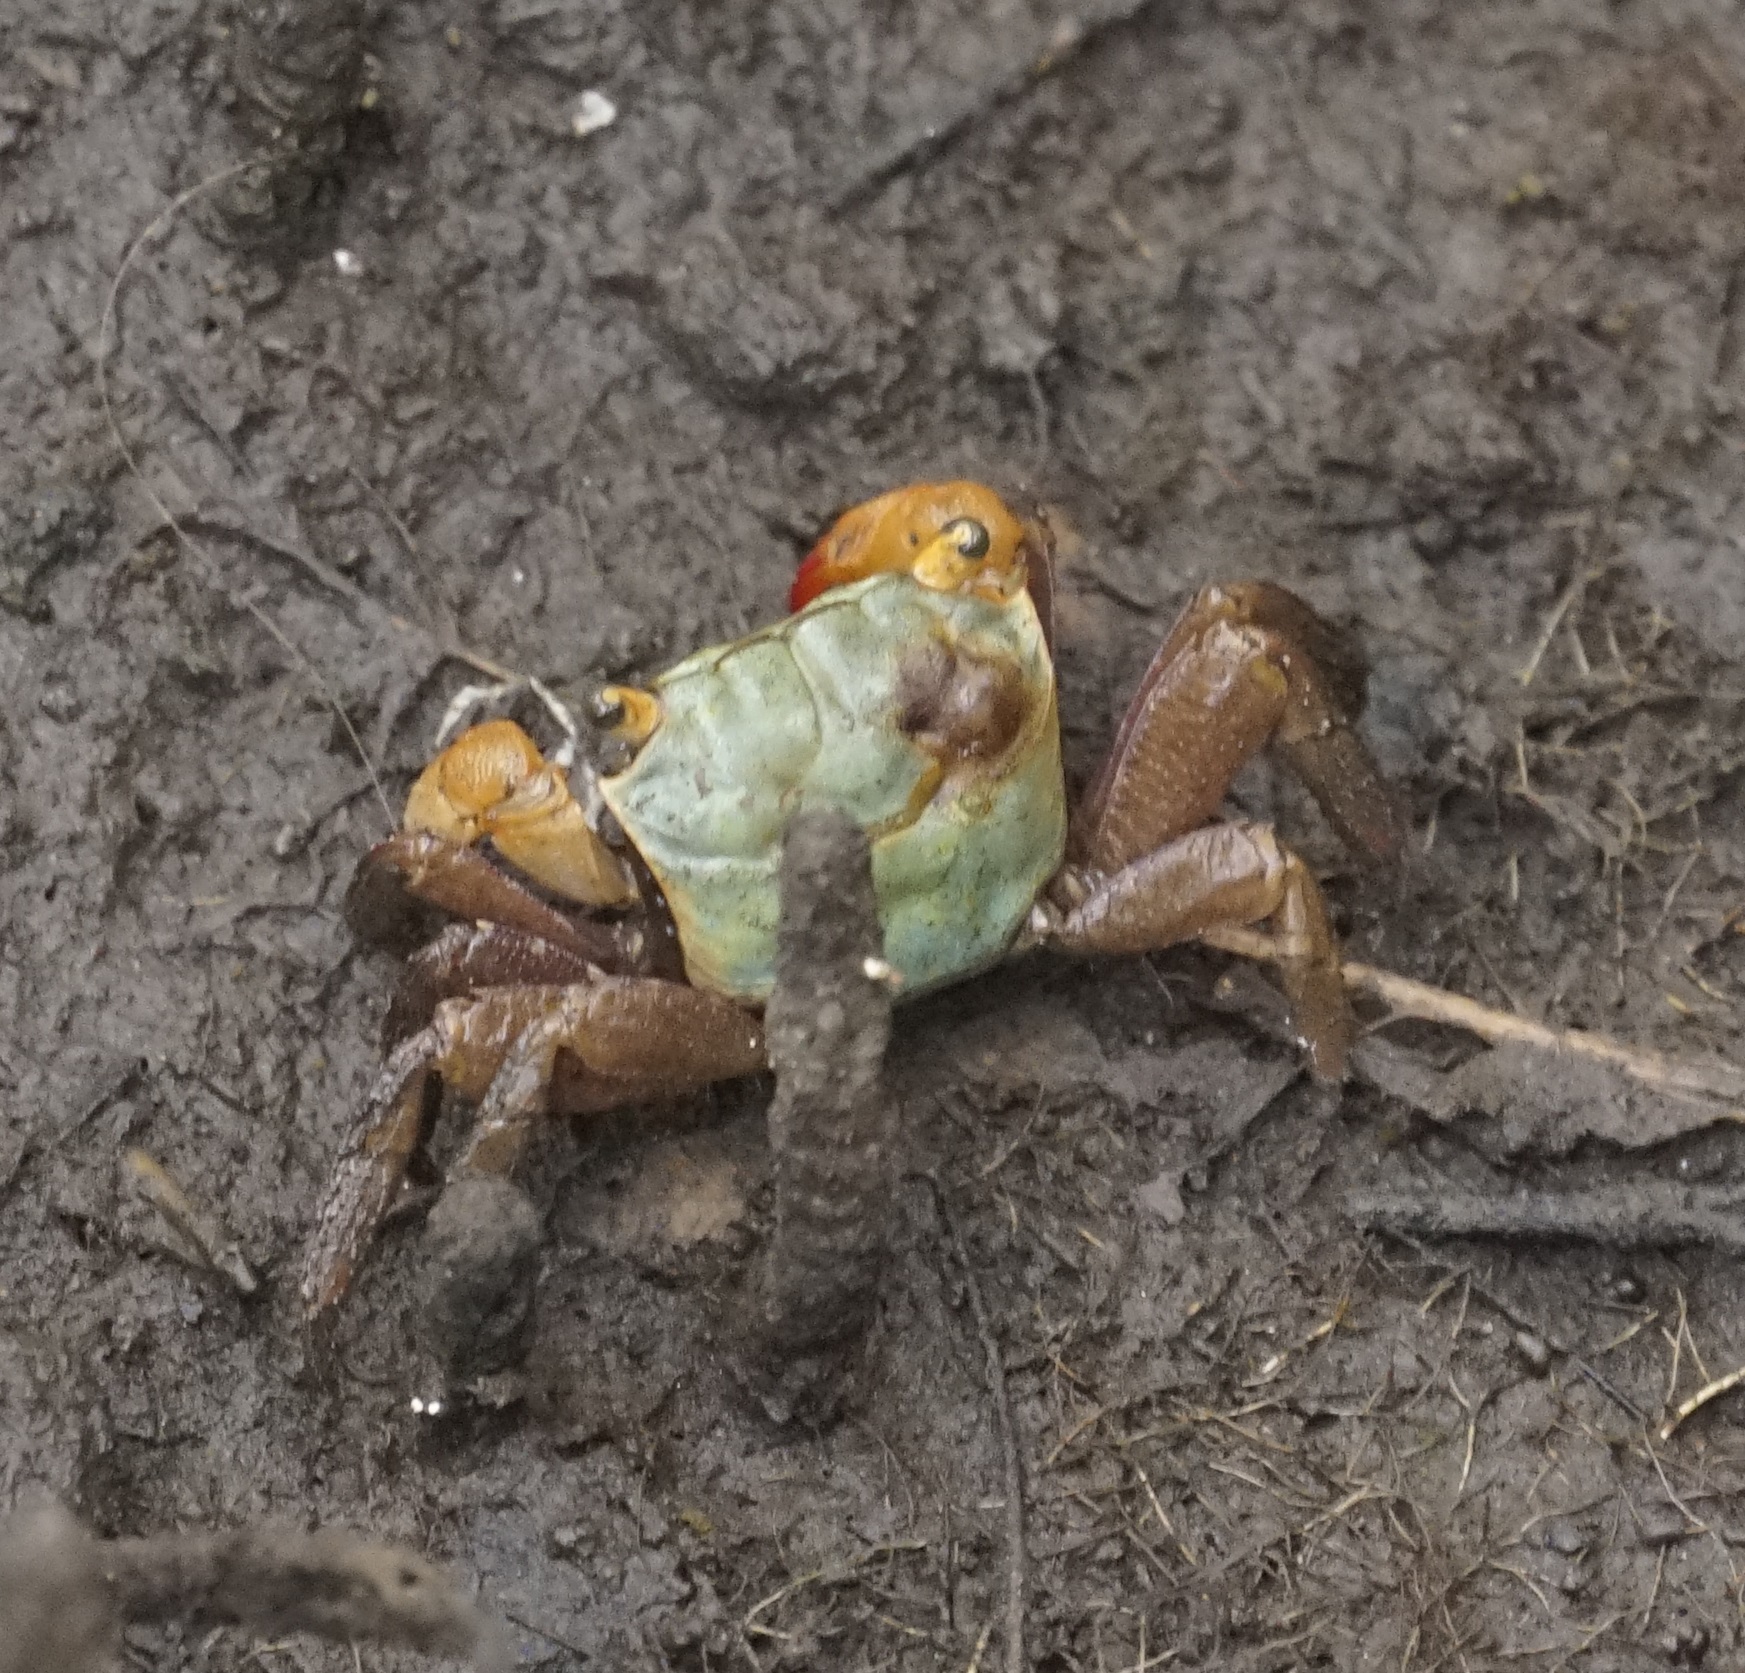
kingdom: Animalia
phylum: Arthropoda
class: Malacostraca
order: Decapoda
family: Sesarmidae
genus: Parasesarma
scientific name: Parasesarma erythodactylum
